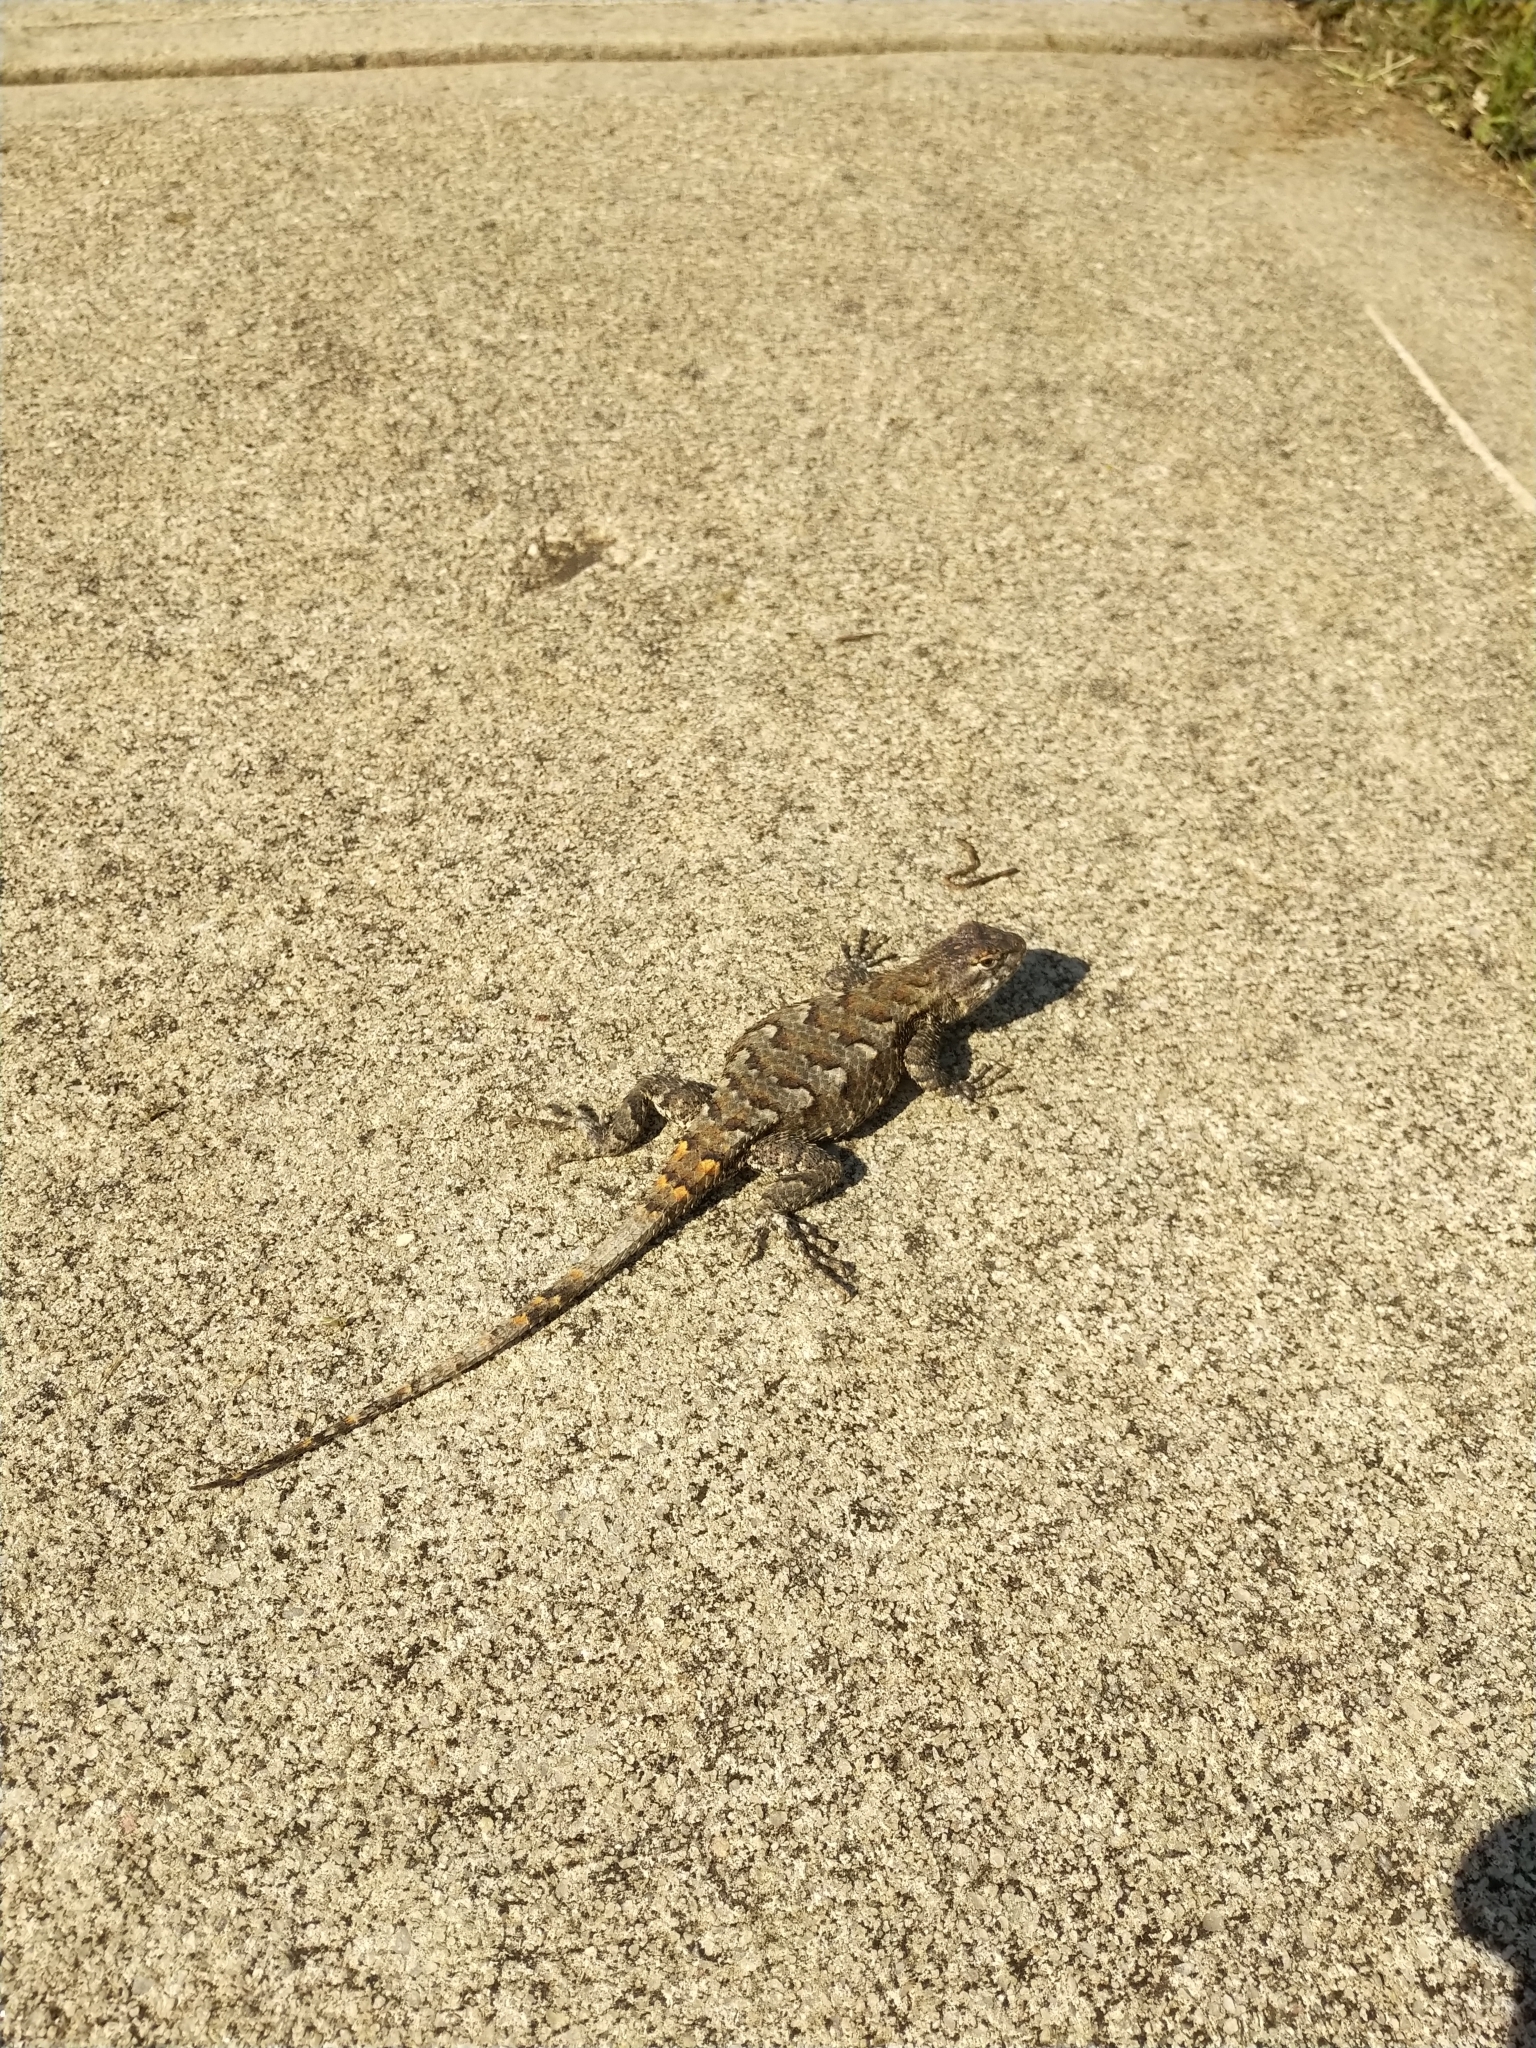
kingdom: Animalia
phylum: Chordata
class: Squamata
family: Phrynosomatidae
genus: Sceloporus
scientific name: Sceloporus undulatus
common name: Eastern fence lizard
